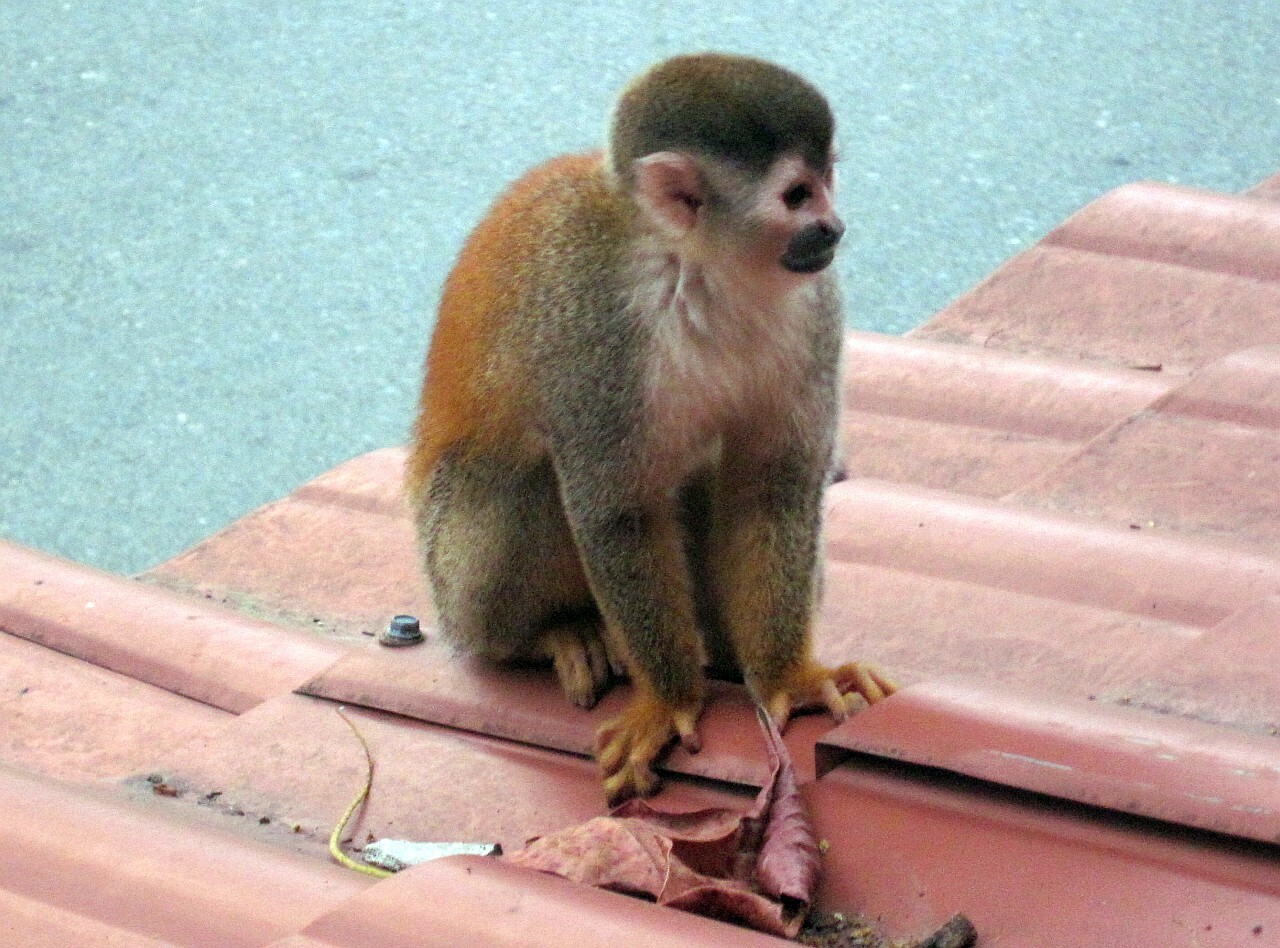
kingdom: Animalia
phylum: Chordata
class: Mammalia
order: Primates
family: Cebidae
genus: Saimiri
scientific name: Saimiri oerstedii
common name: Central american squirrel monkey
